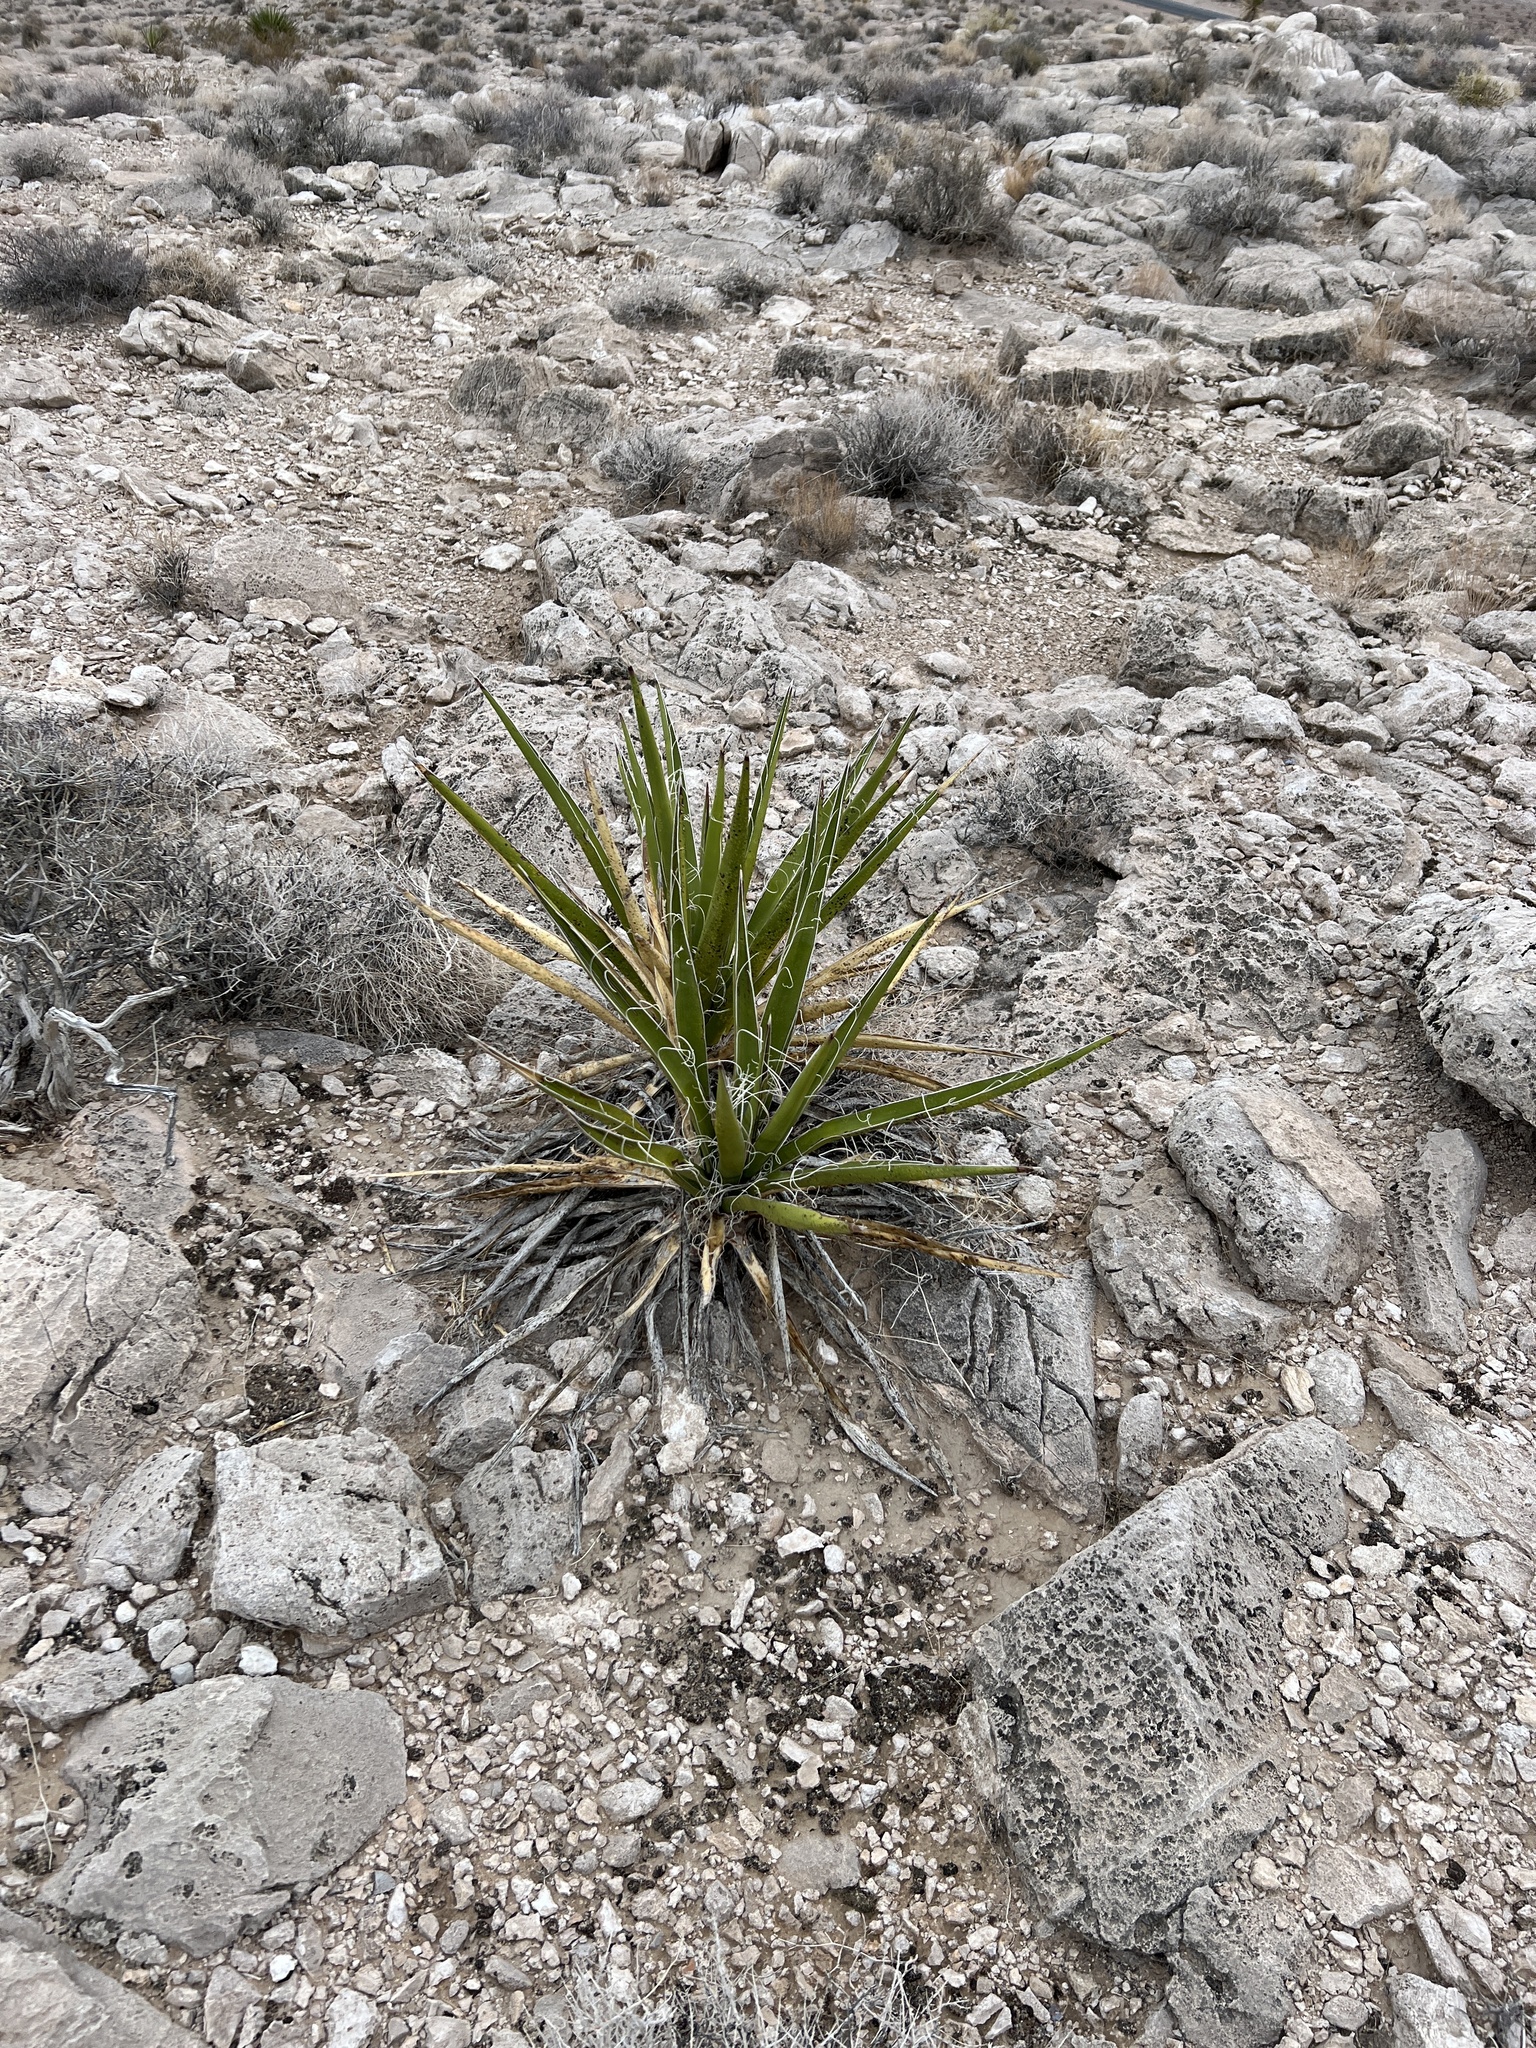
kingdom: Plantae
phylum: Tracheophyta
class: Liliopsida
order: Asparagales
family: Asparagaceae
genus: Yucca
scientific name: Yucca schidigera
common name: Mojave yucca
